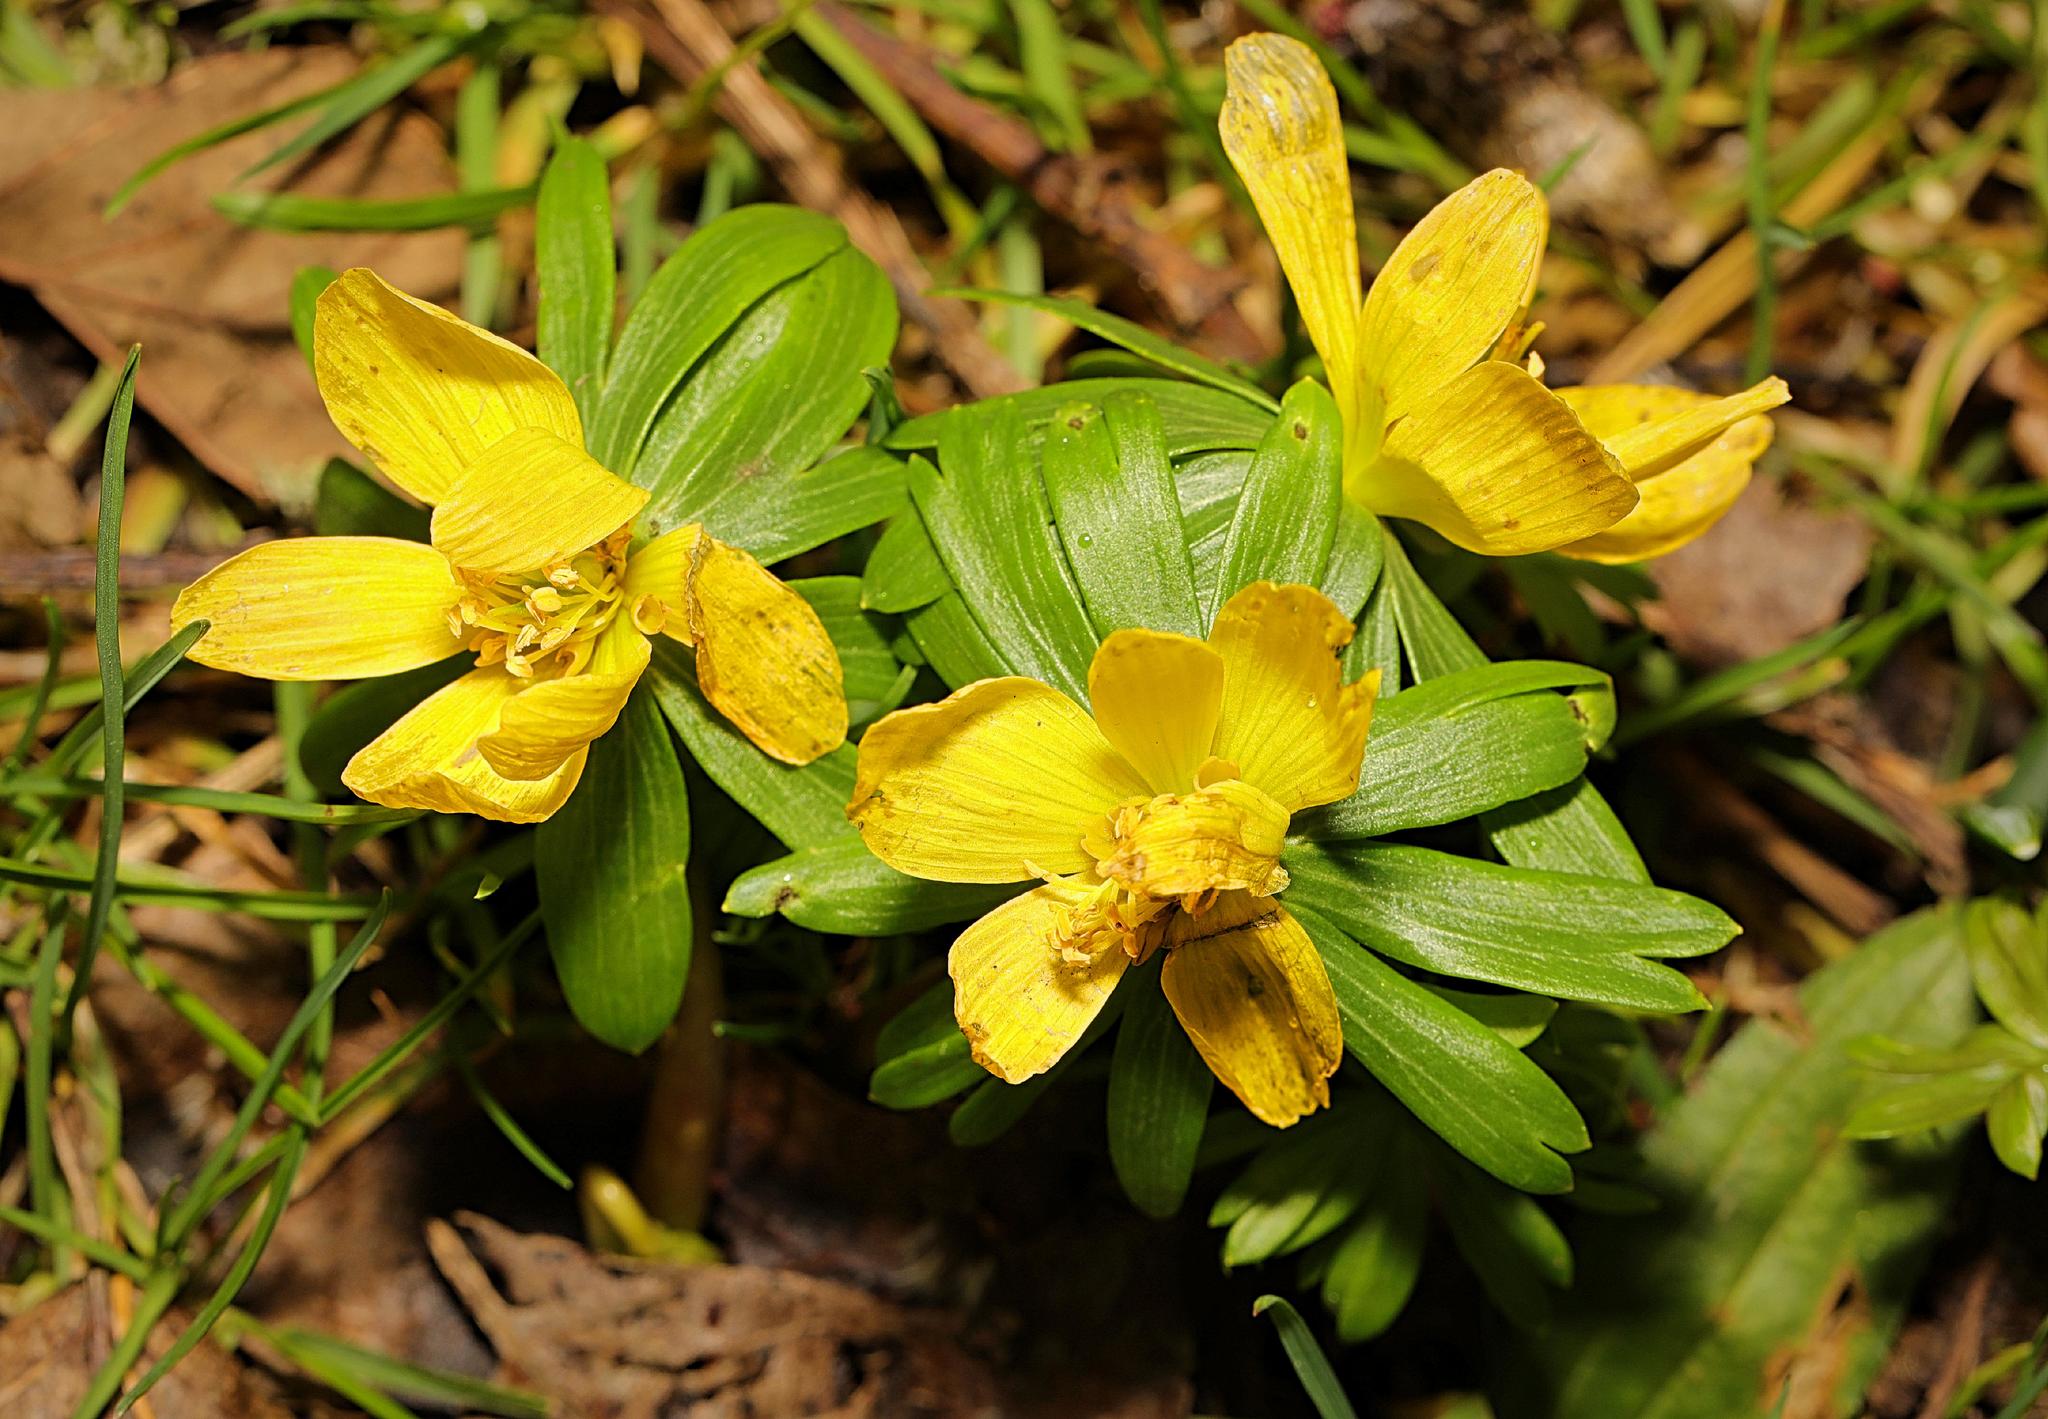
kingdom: Plantae
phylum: Tracheophyta
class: Magnoliopsida
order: Ranunculales
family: Ranunculaceae
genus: Eranthis
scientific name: Eranthis hyemalis
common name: Winter aconite
